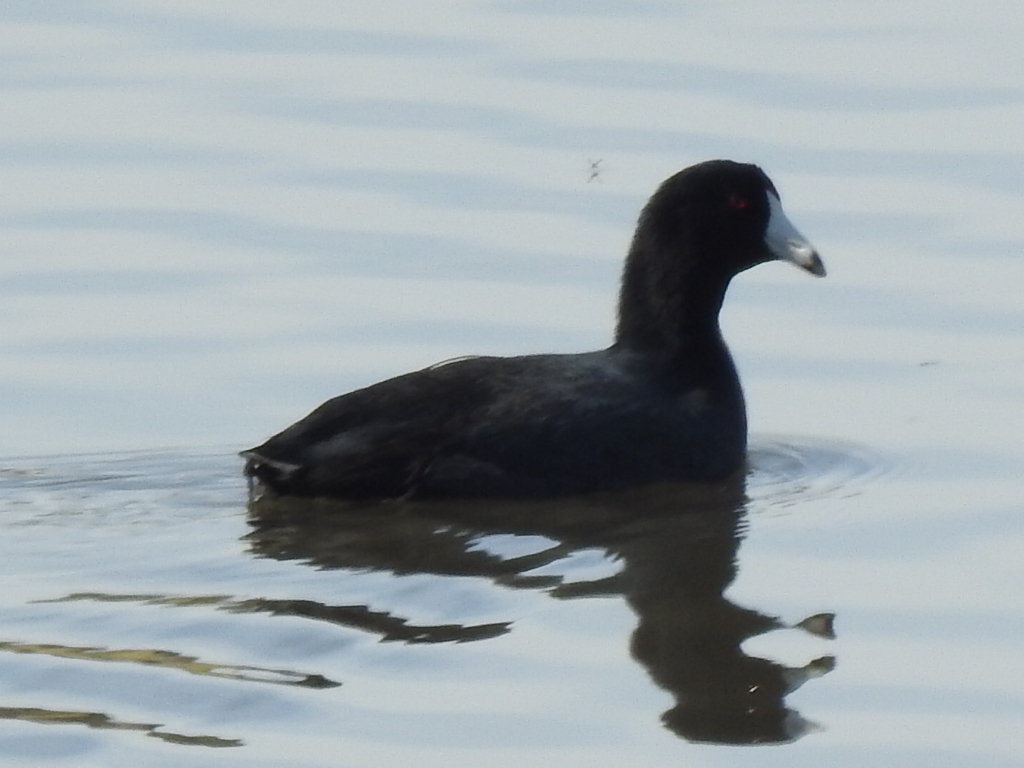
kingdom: Animalia
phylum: Chordata
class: Aves
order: Gruiformes
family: Rallidae
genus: Fulica
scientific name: Fulica americana
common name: American coot
